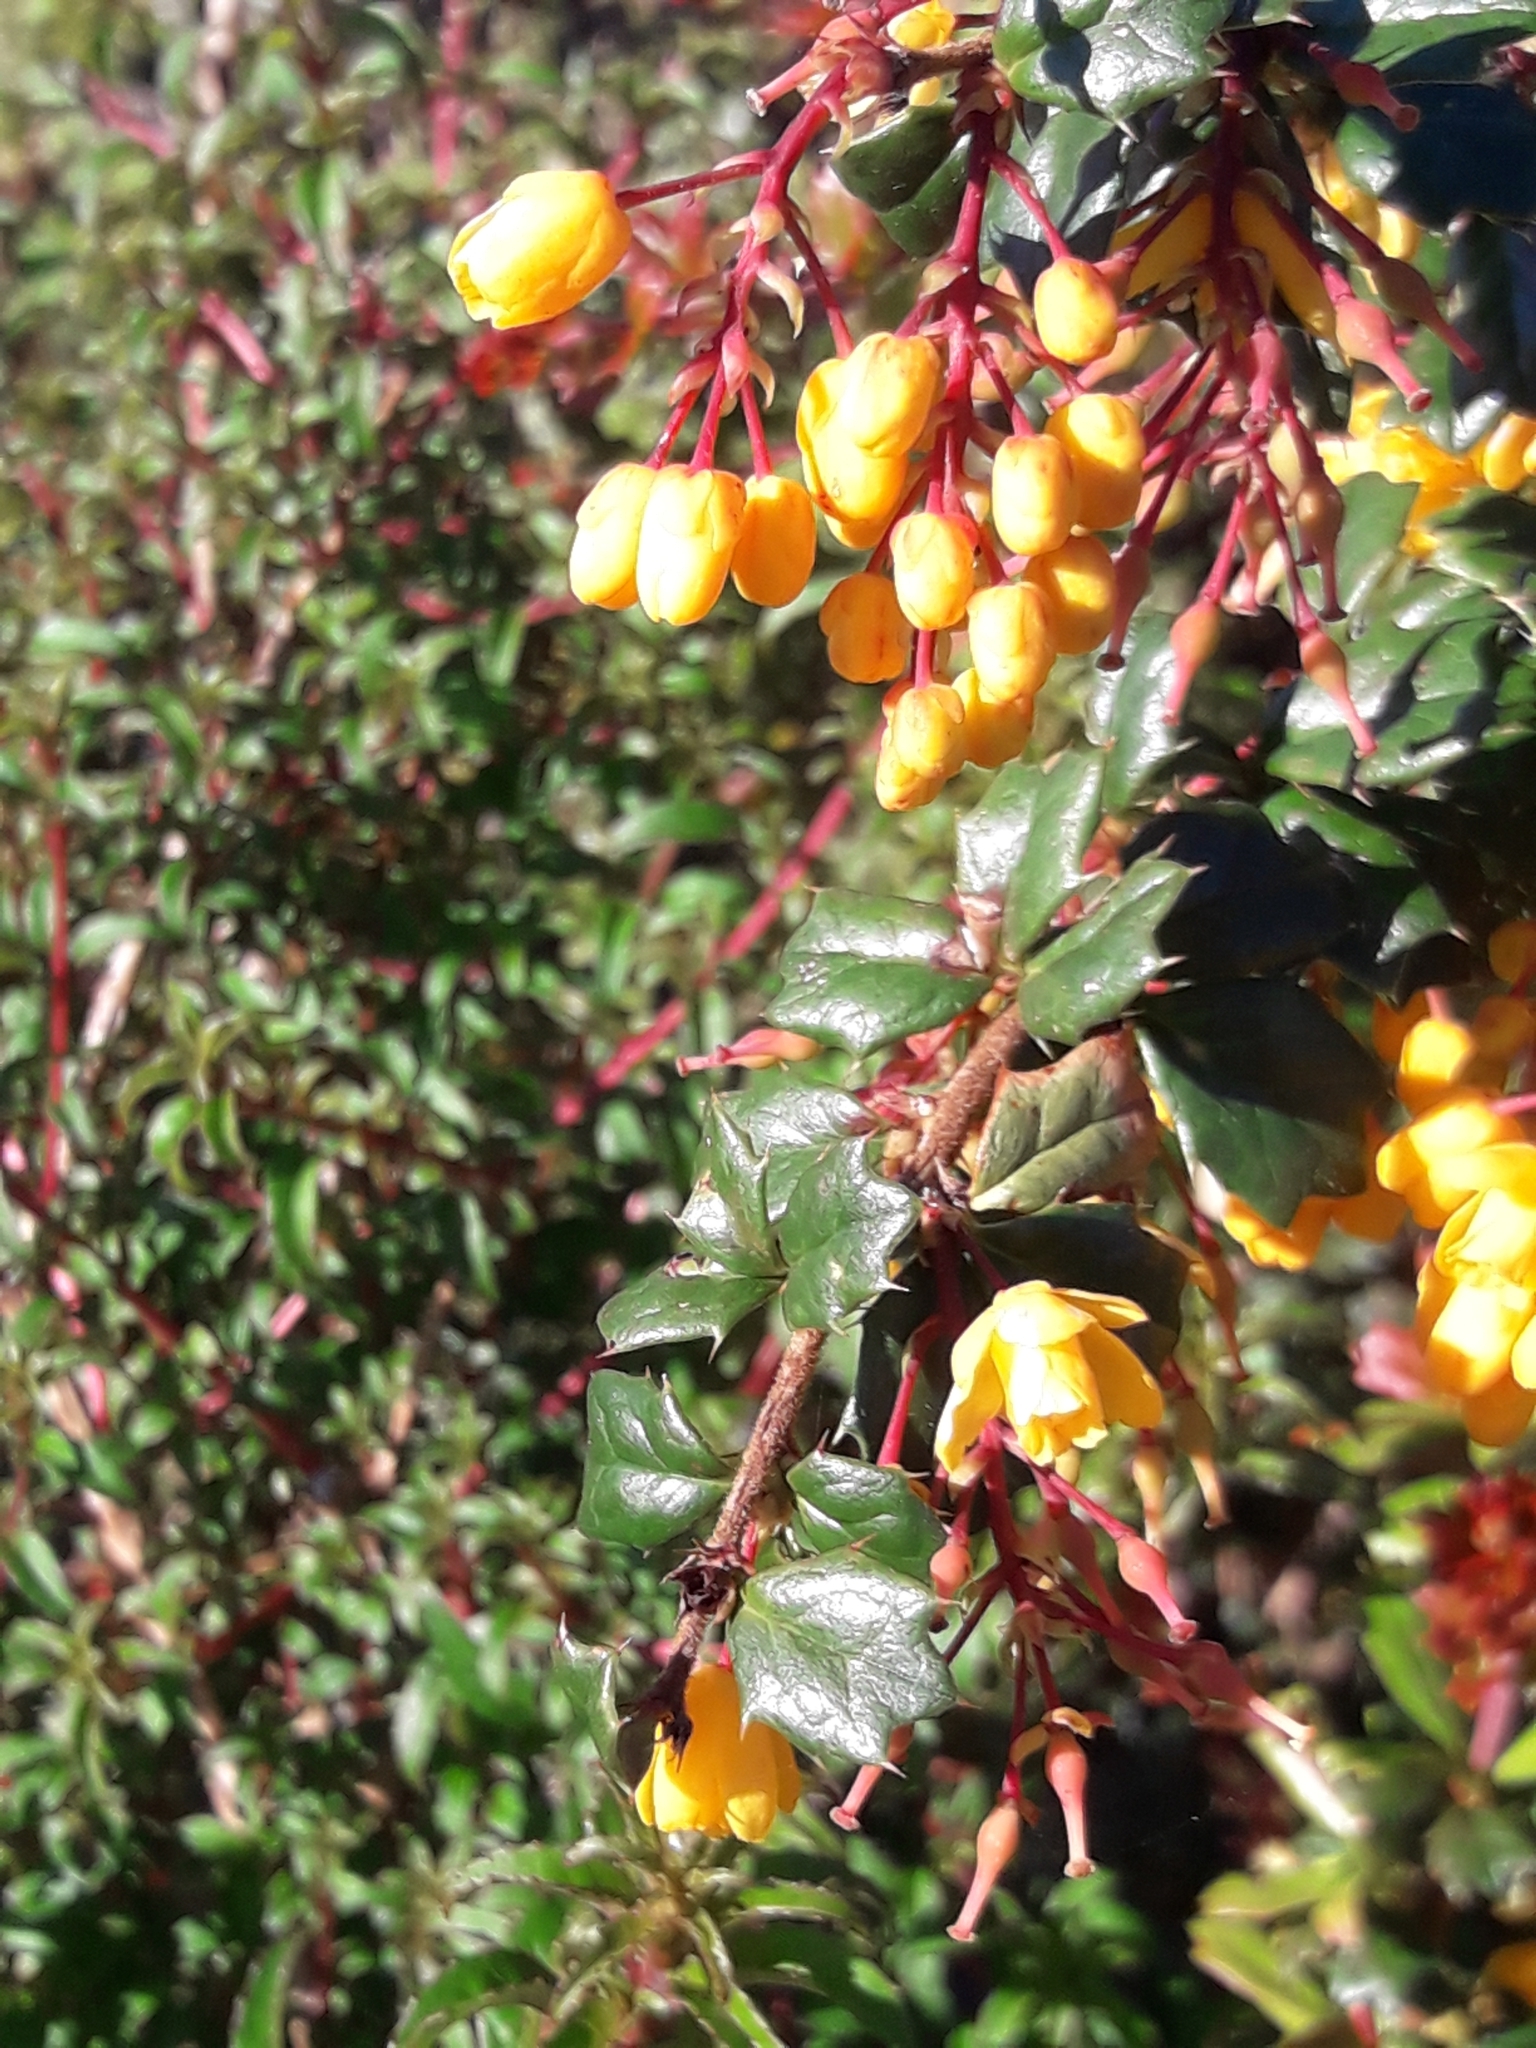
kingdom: Plantae
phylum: Tracheophyta
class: Magnoliopsida
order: Ranunculales
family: Berberidaceae
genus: Berberis
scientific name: Berberis darwinii
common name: Darwin's barberry
